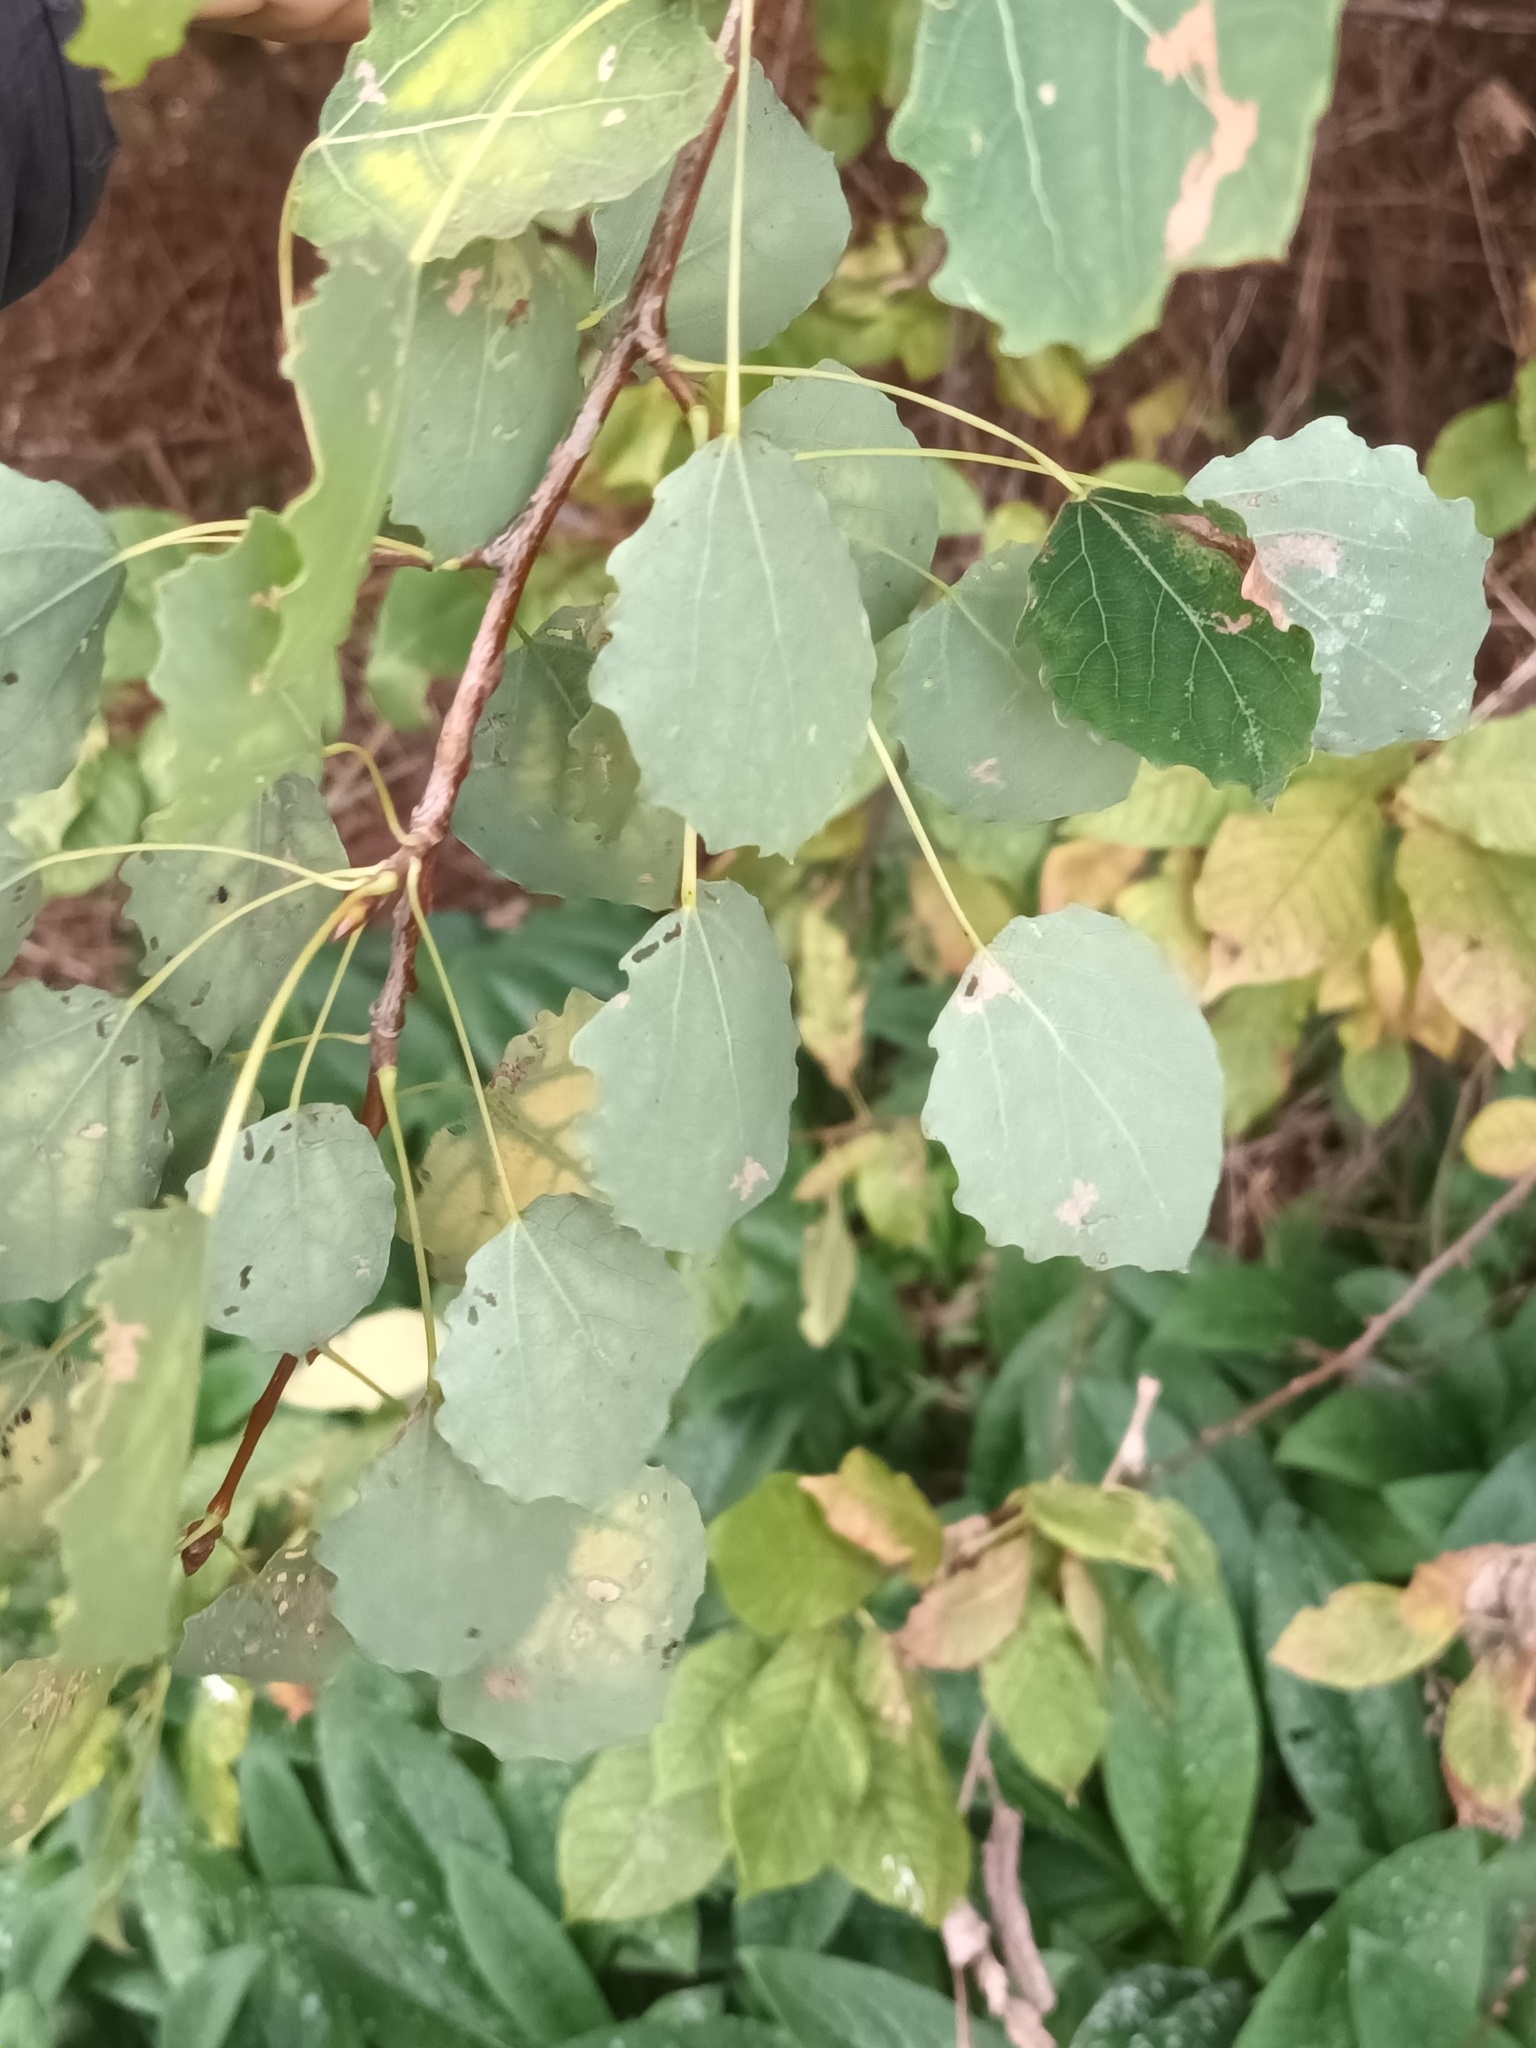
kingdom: Plantae
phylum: Tracheophyta
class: Magnoliopsida
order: Malpighiales
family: Salicaceae
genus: Populus
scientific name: Populus tremula
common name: European aspen
